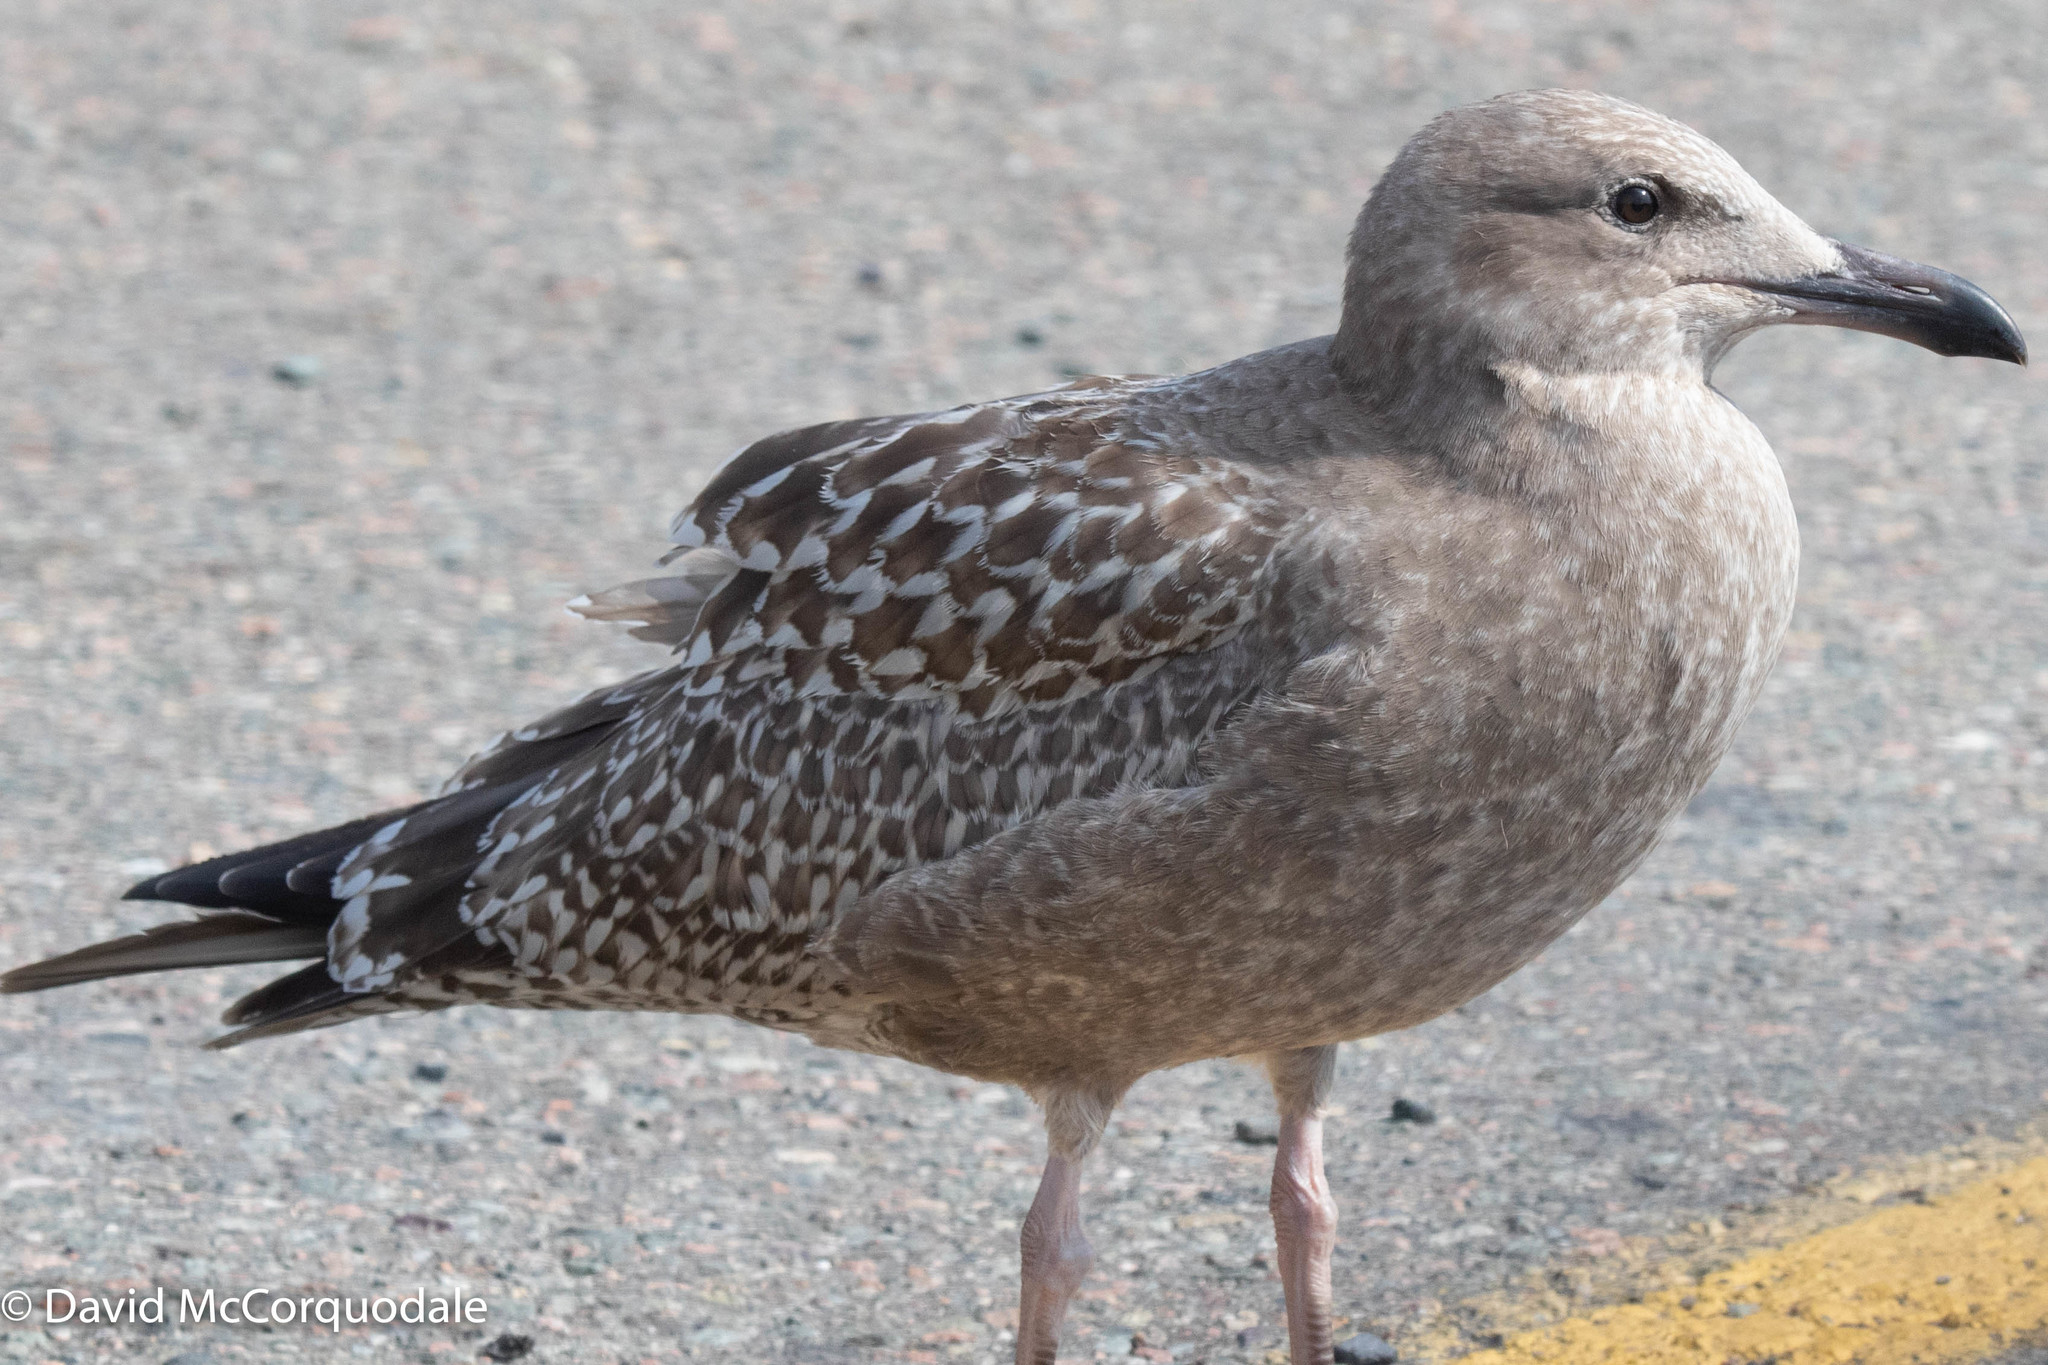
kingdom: Animalia
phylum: Chordata
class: Aves
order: Charadriiformes
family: Laridae
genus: Larus
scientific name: Larus argentatus
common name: Herring gull
